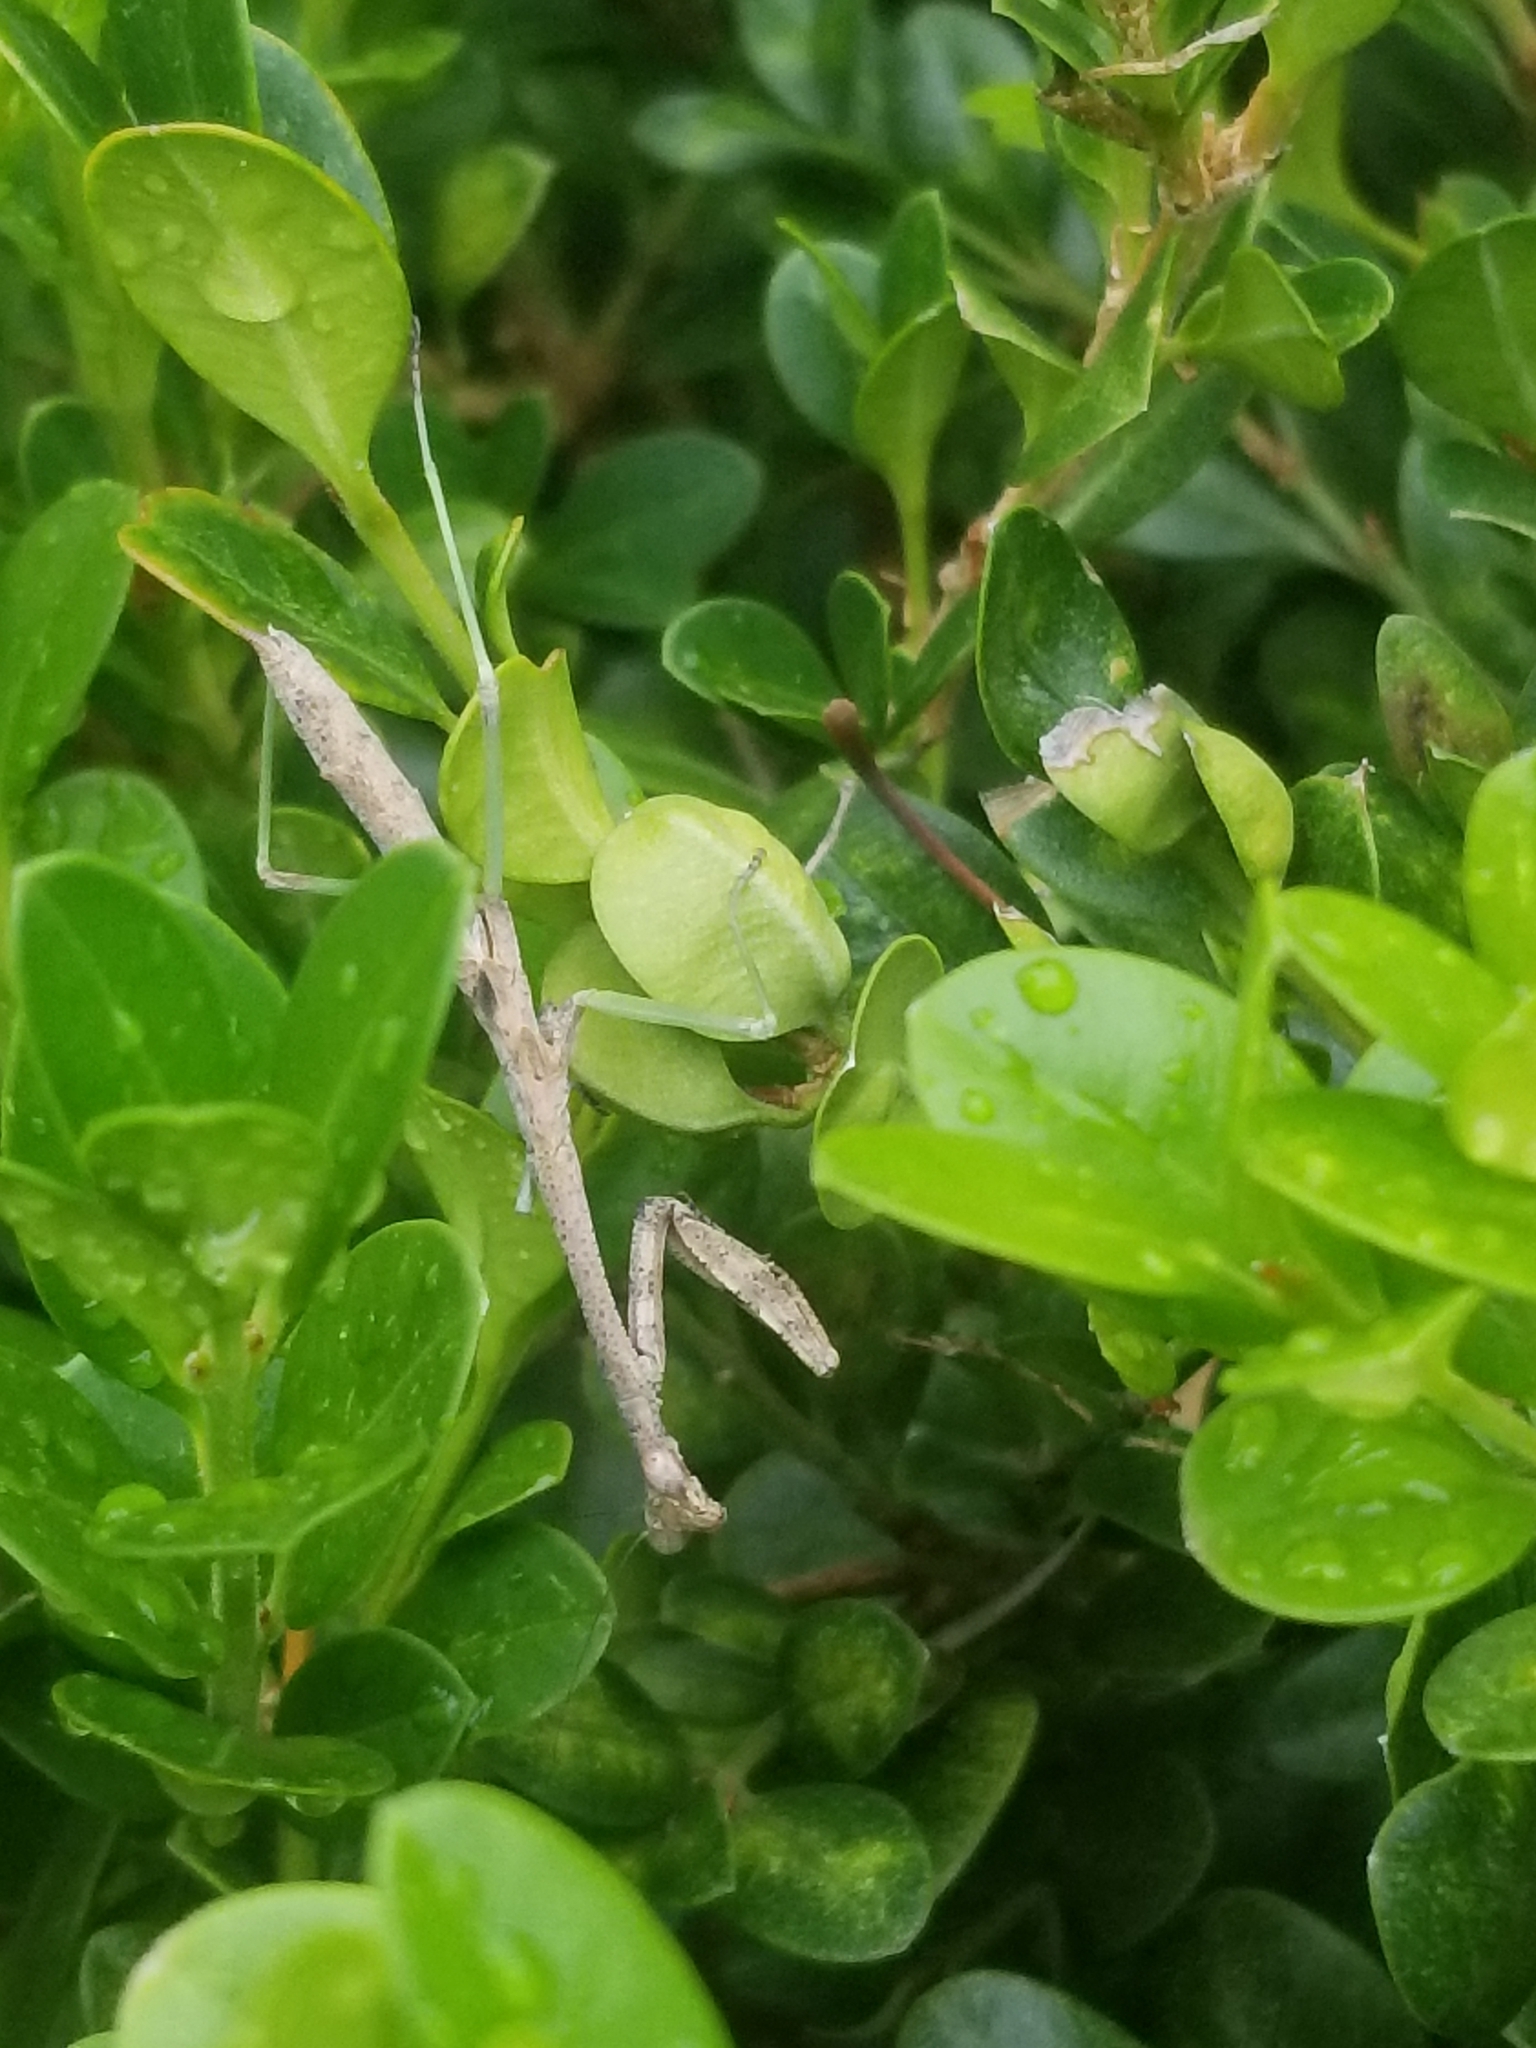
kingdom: Animalia
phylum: Arthropoda
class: Insecta
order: Mantodea
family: Mantidae
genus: Stagmomantis
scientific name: Stagmomantis carolina
